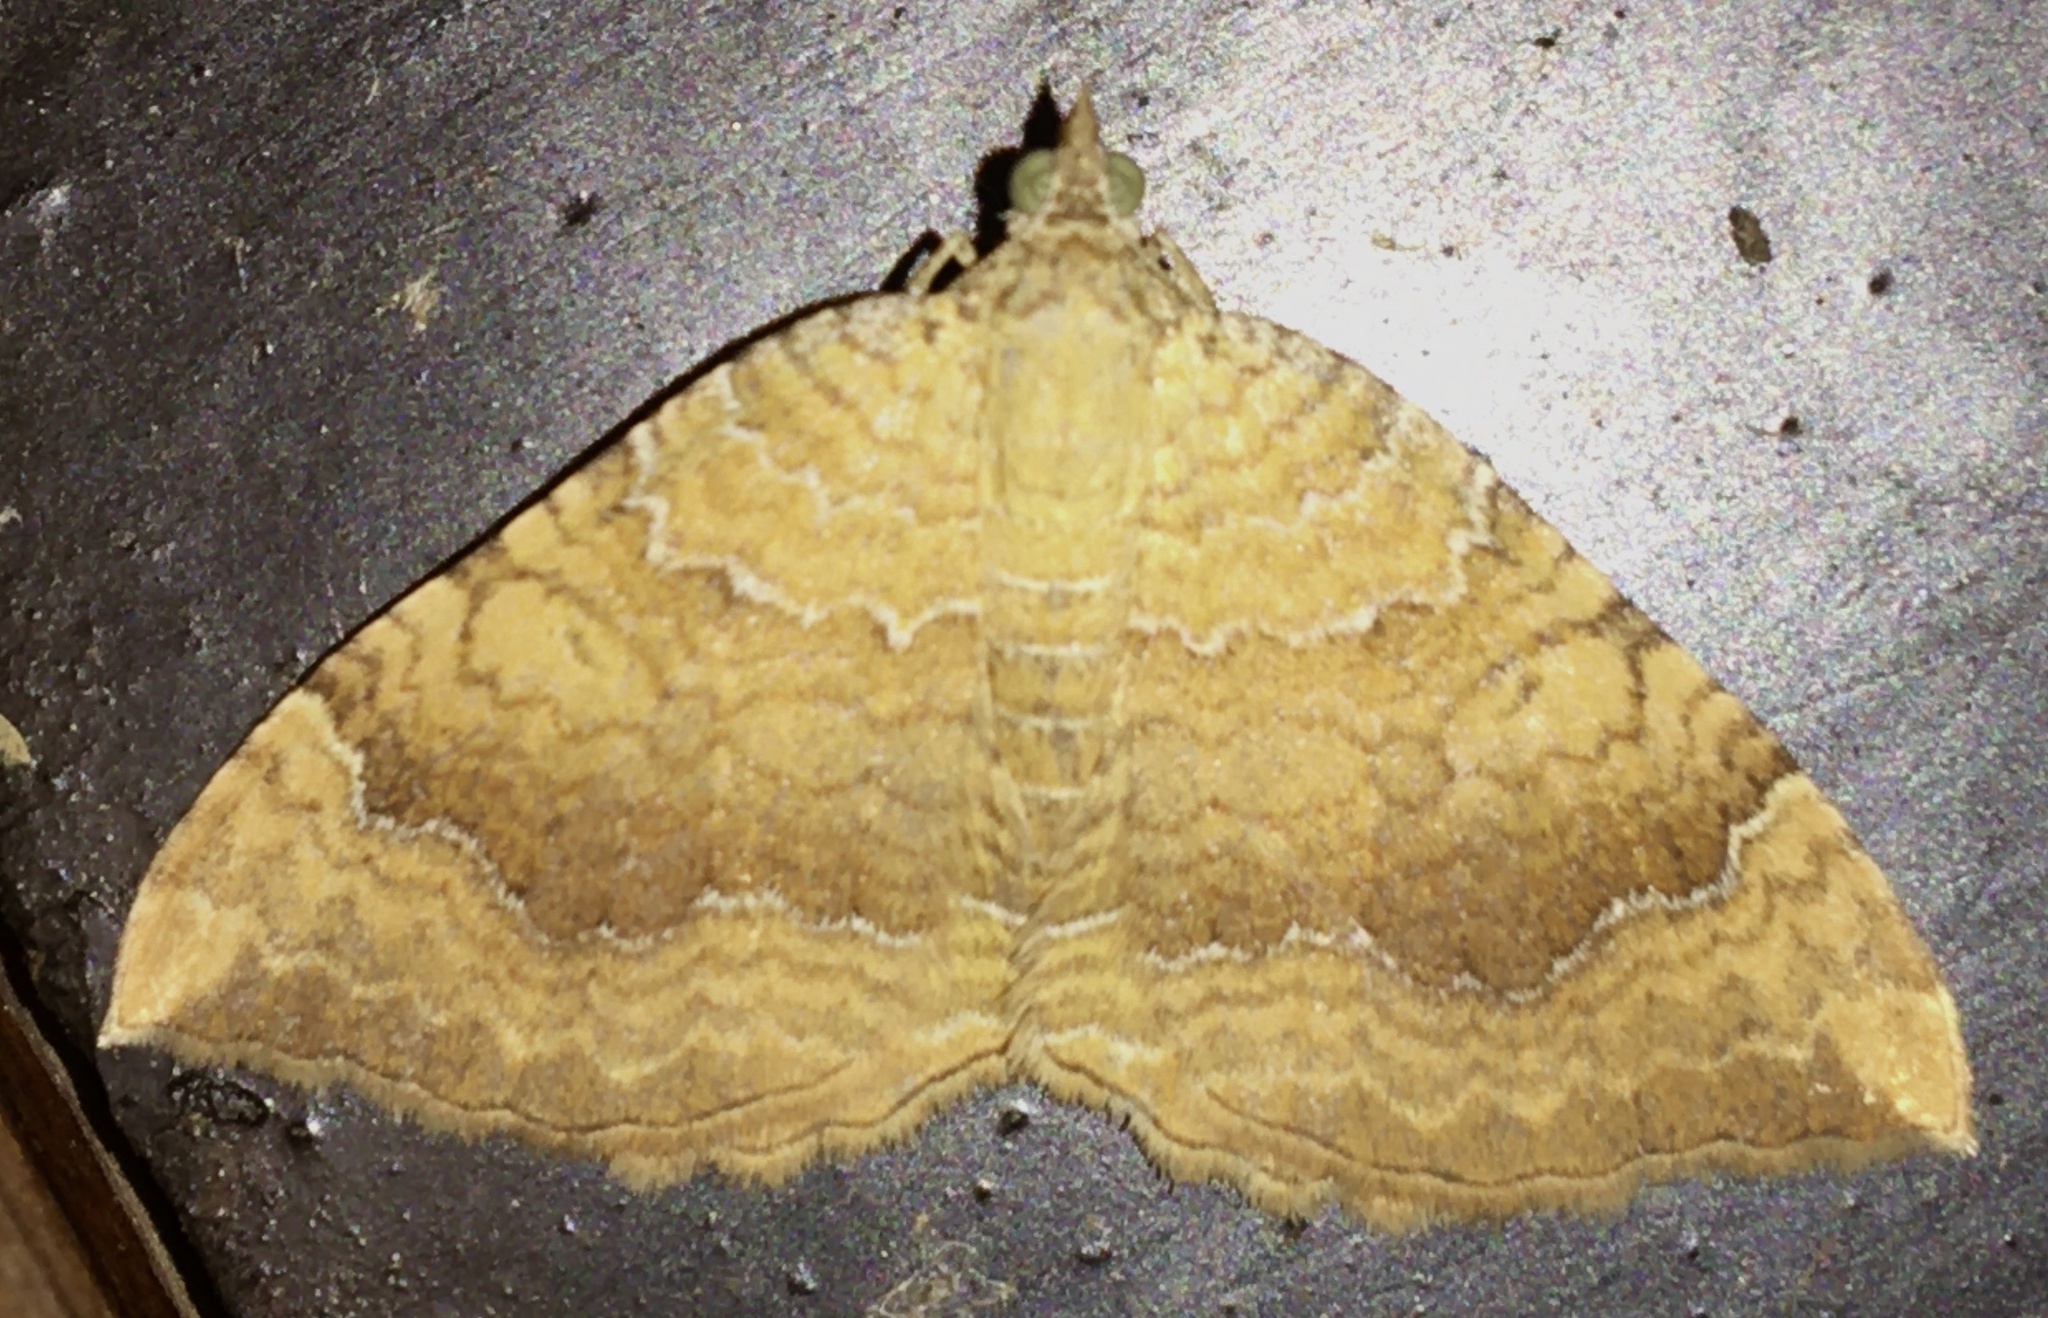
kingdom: Animalia
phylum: Arthropoda
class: Insecta
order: Lepidoptera
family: Geometridae
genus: Camptogramma
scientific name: Camptogramma bilineata
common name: Yellow shell
